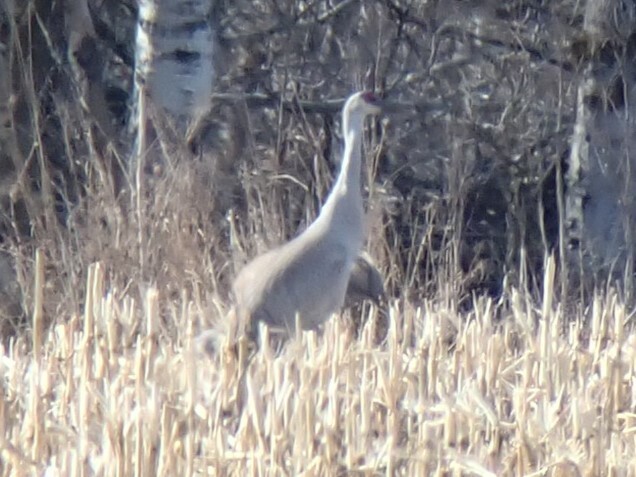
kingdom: Animalia
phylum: Chordata
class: Aves
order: Gruiformes
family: Gruidae
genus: Grus
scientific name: Grus canadensis
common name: Sandhill crane
